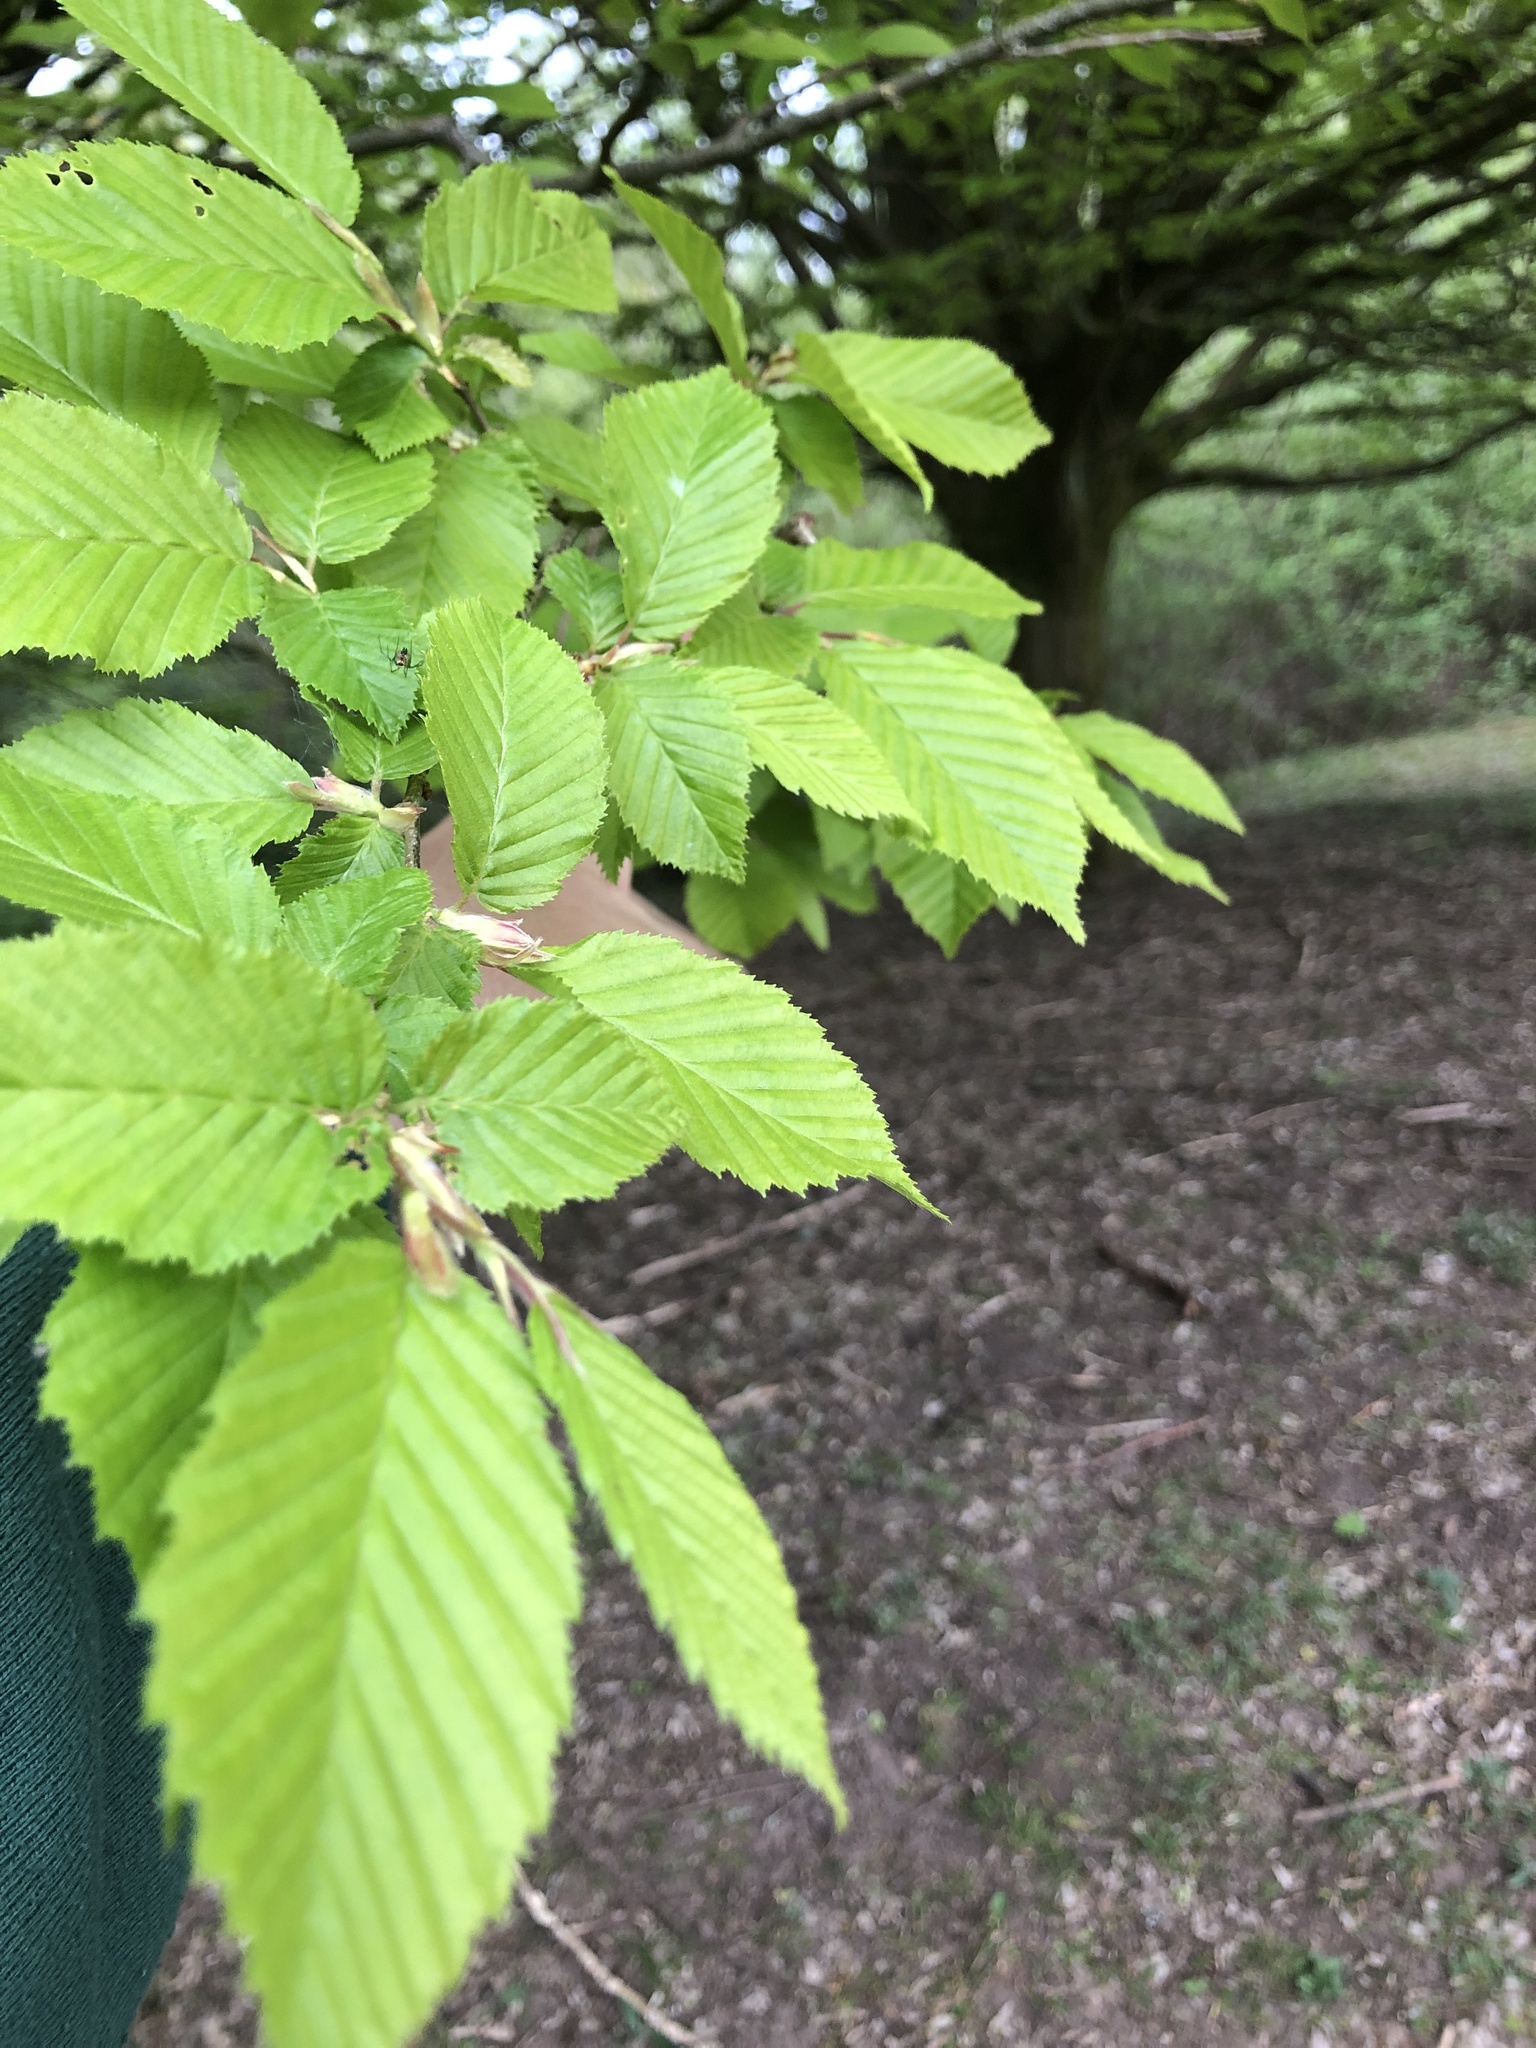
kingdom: Plantae
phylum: Tracheophyta
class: Magnoliopsida
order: Fagales
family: Betulaceae
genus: Carpinus
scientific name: Carpinus betulus
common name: Hornbeam
